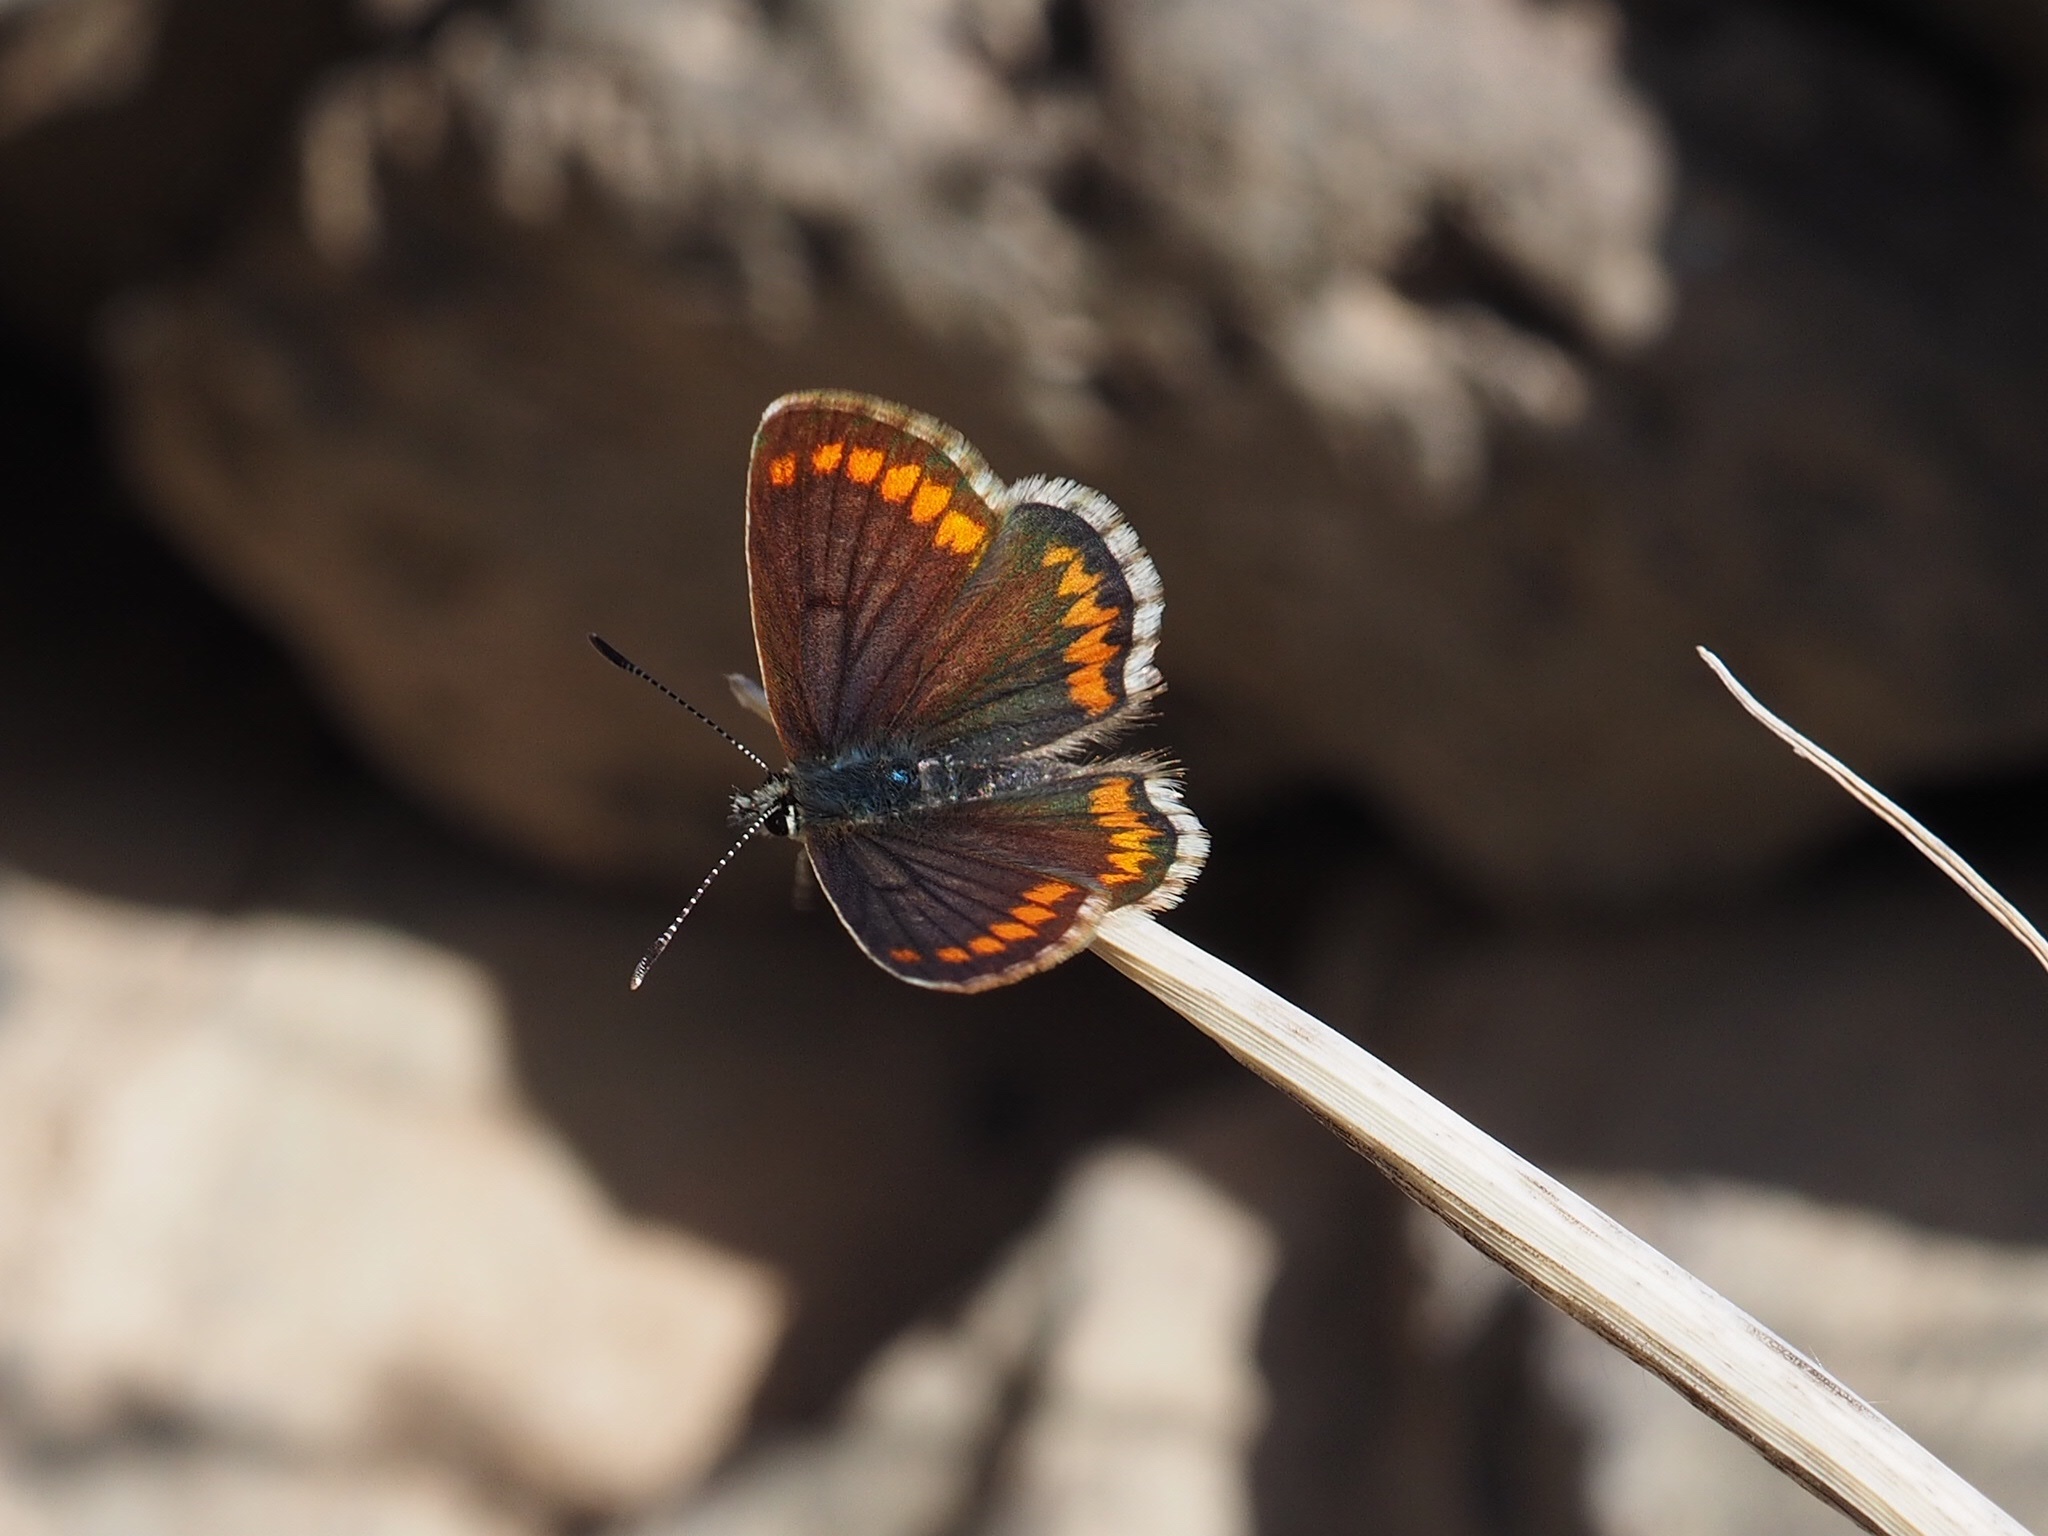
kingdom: Animalia
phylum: Arthropoda
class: Insecta
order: Lepidoptera
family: Lycaenidae
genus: Aricia
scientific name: Aricia cramera
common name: Eschscholtz´s brown  argus
